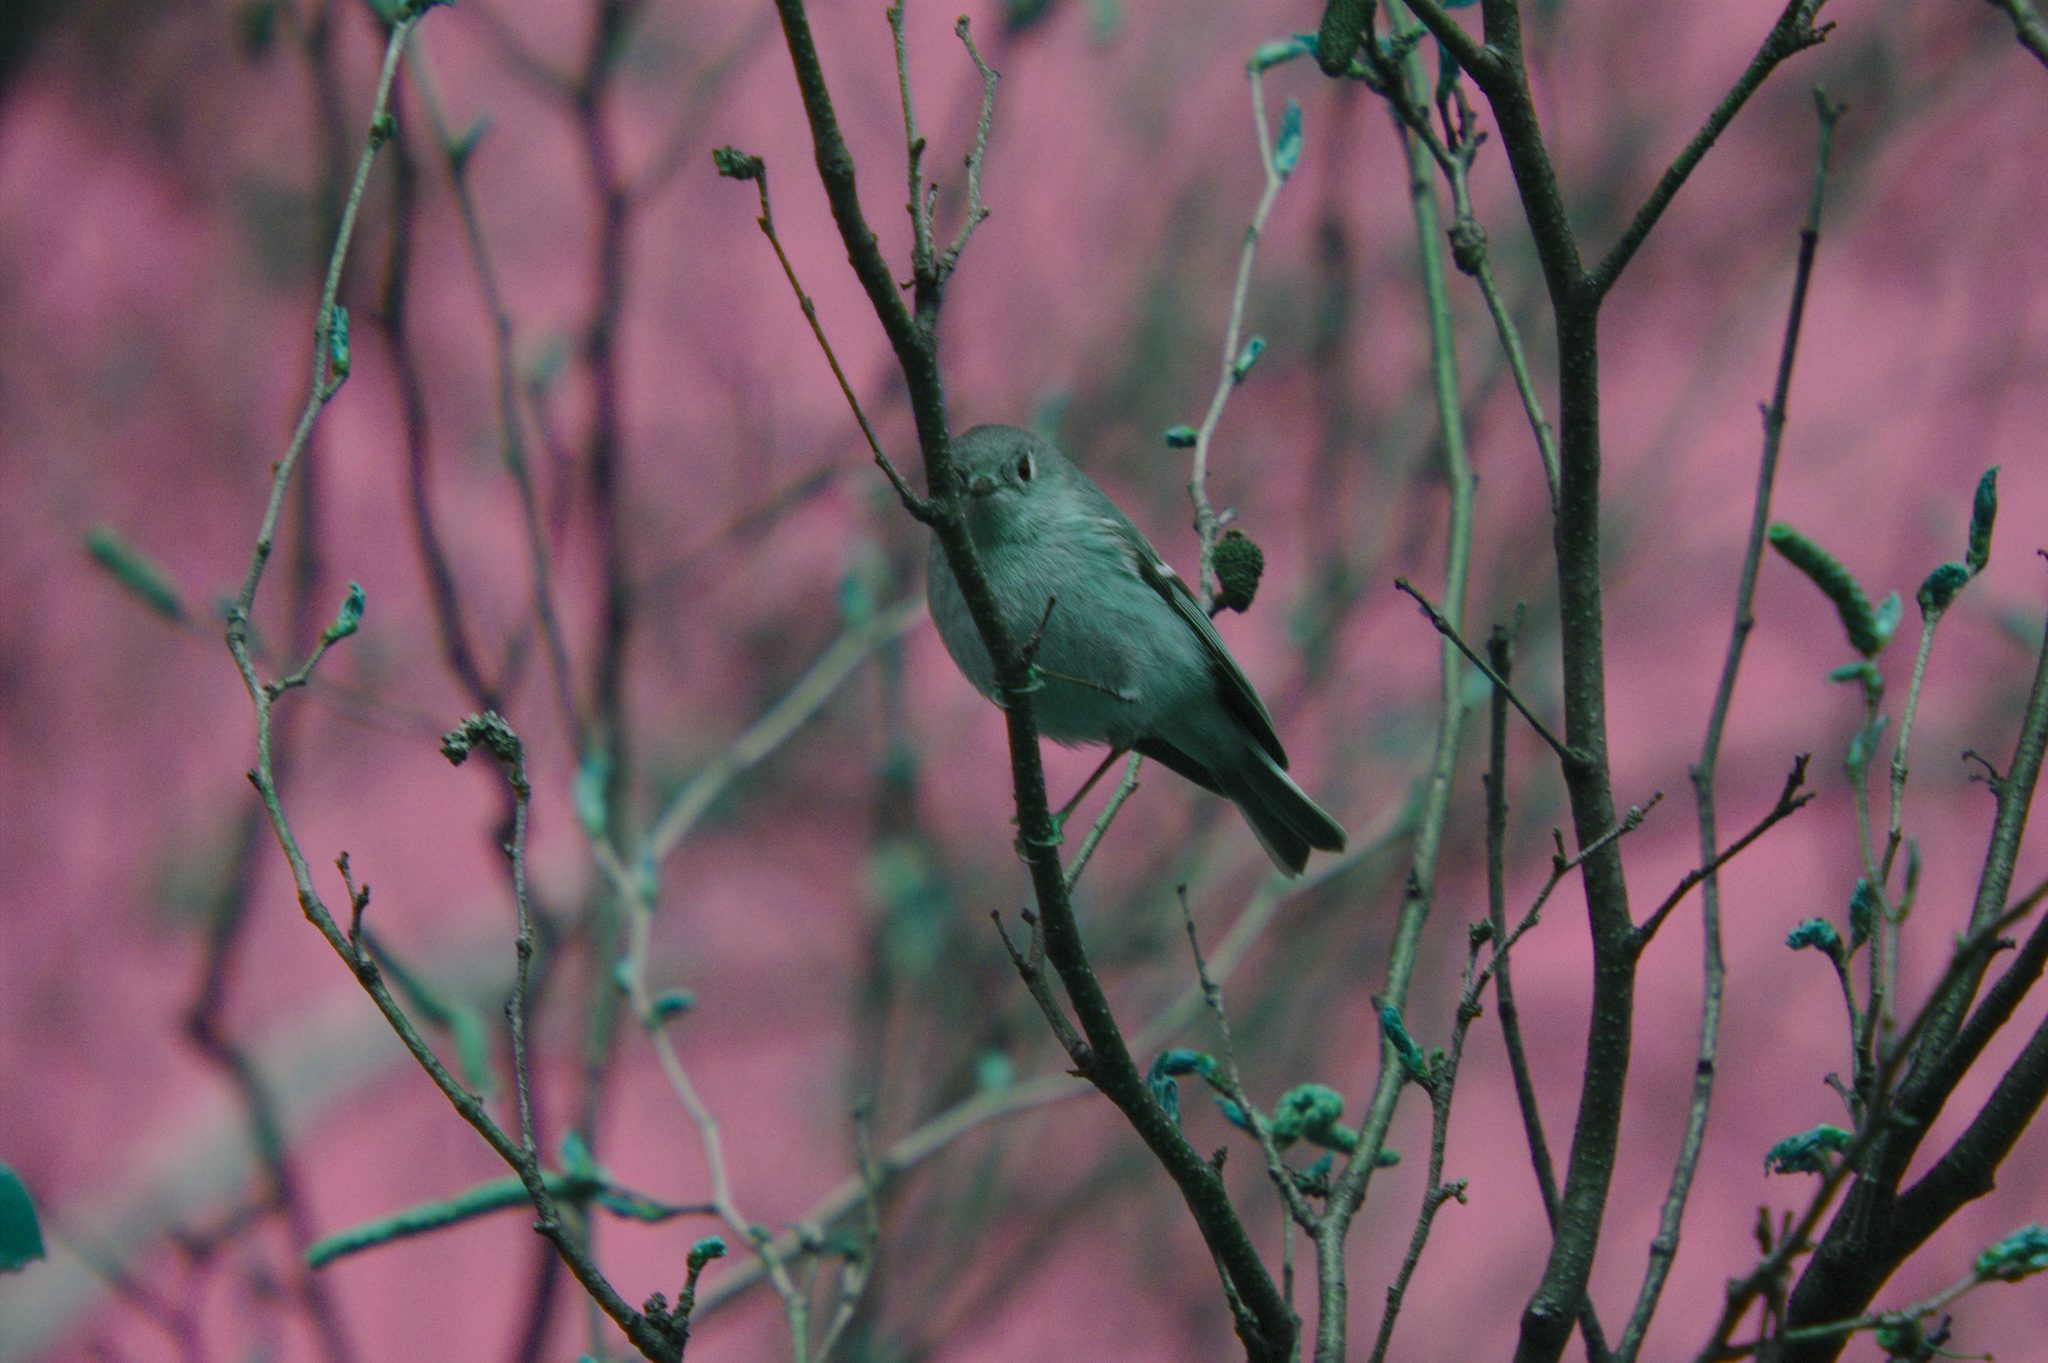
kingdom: Animalia
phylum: Chordata
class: Aves
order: Passeriformes
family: Regulidae
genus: Regulus
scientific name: Regulus calendula
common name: Ruby-crowned kinglet
